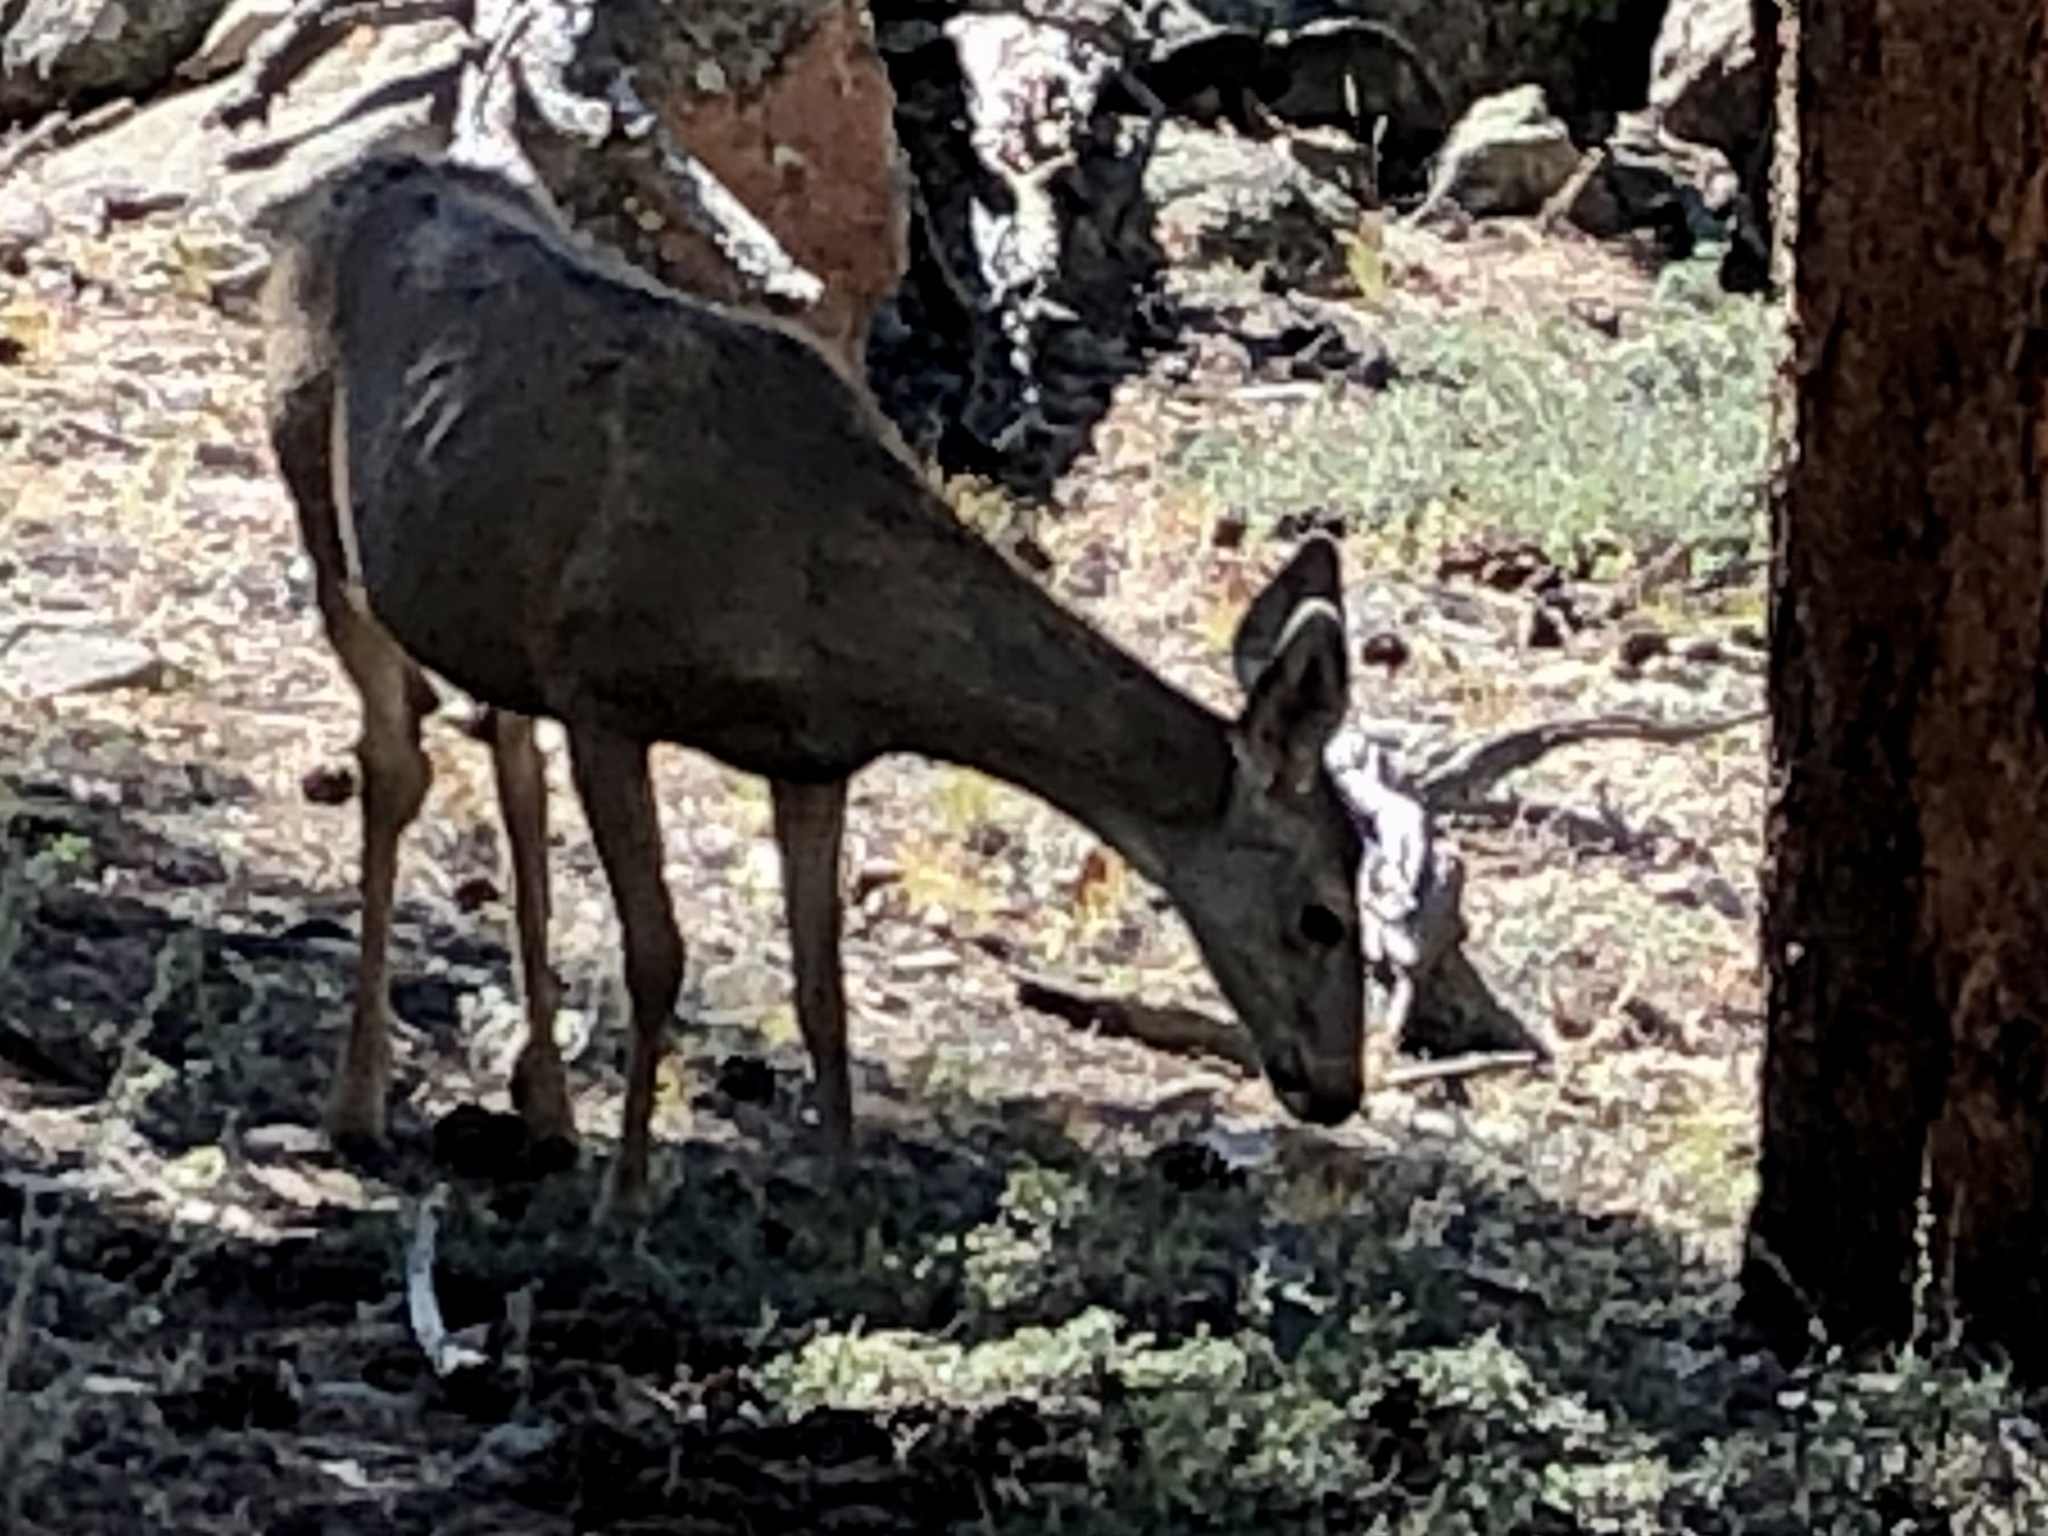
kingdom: Animalia
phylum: Chordata
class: Mammalia
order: Artiodactyla
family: Cervidae
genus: Odocoileus
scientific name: Odocoileus hemionus
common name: Mule deer
